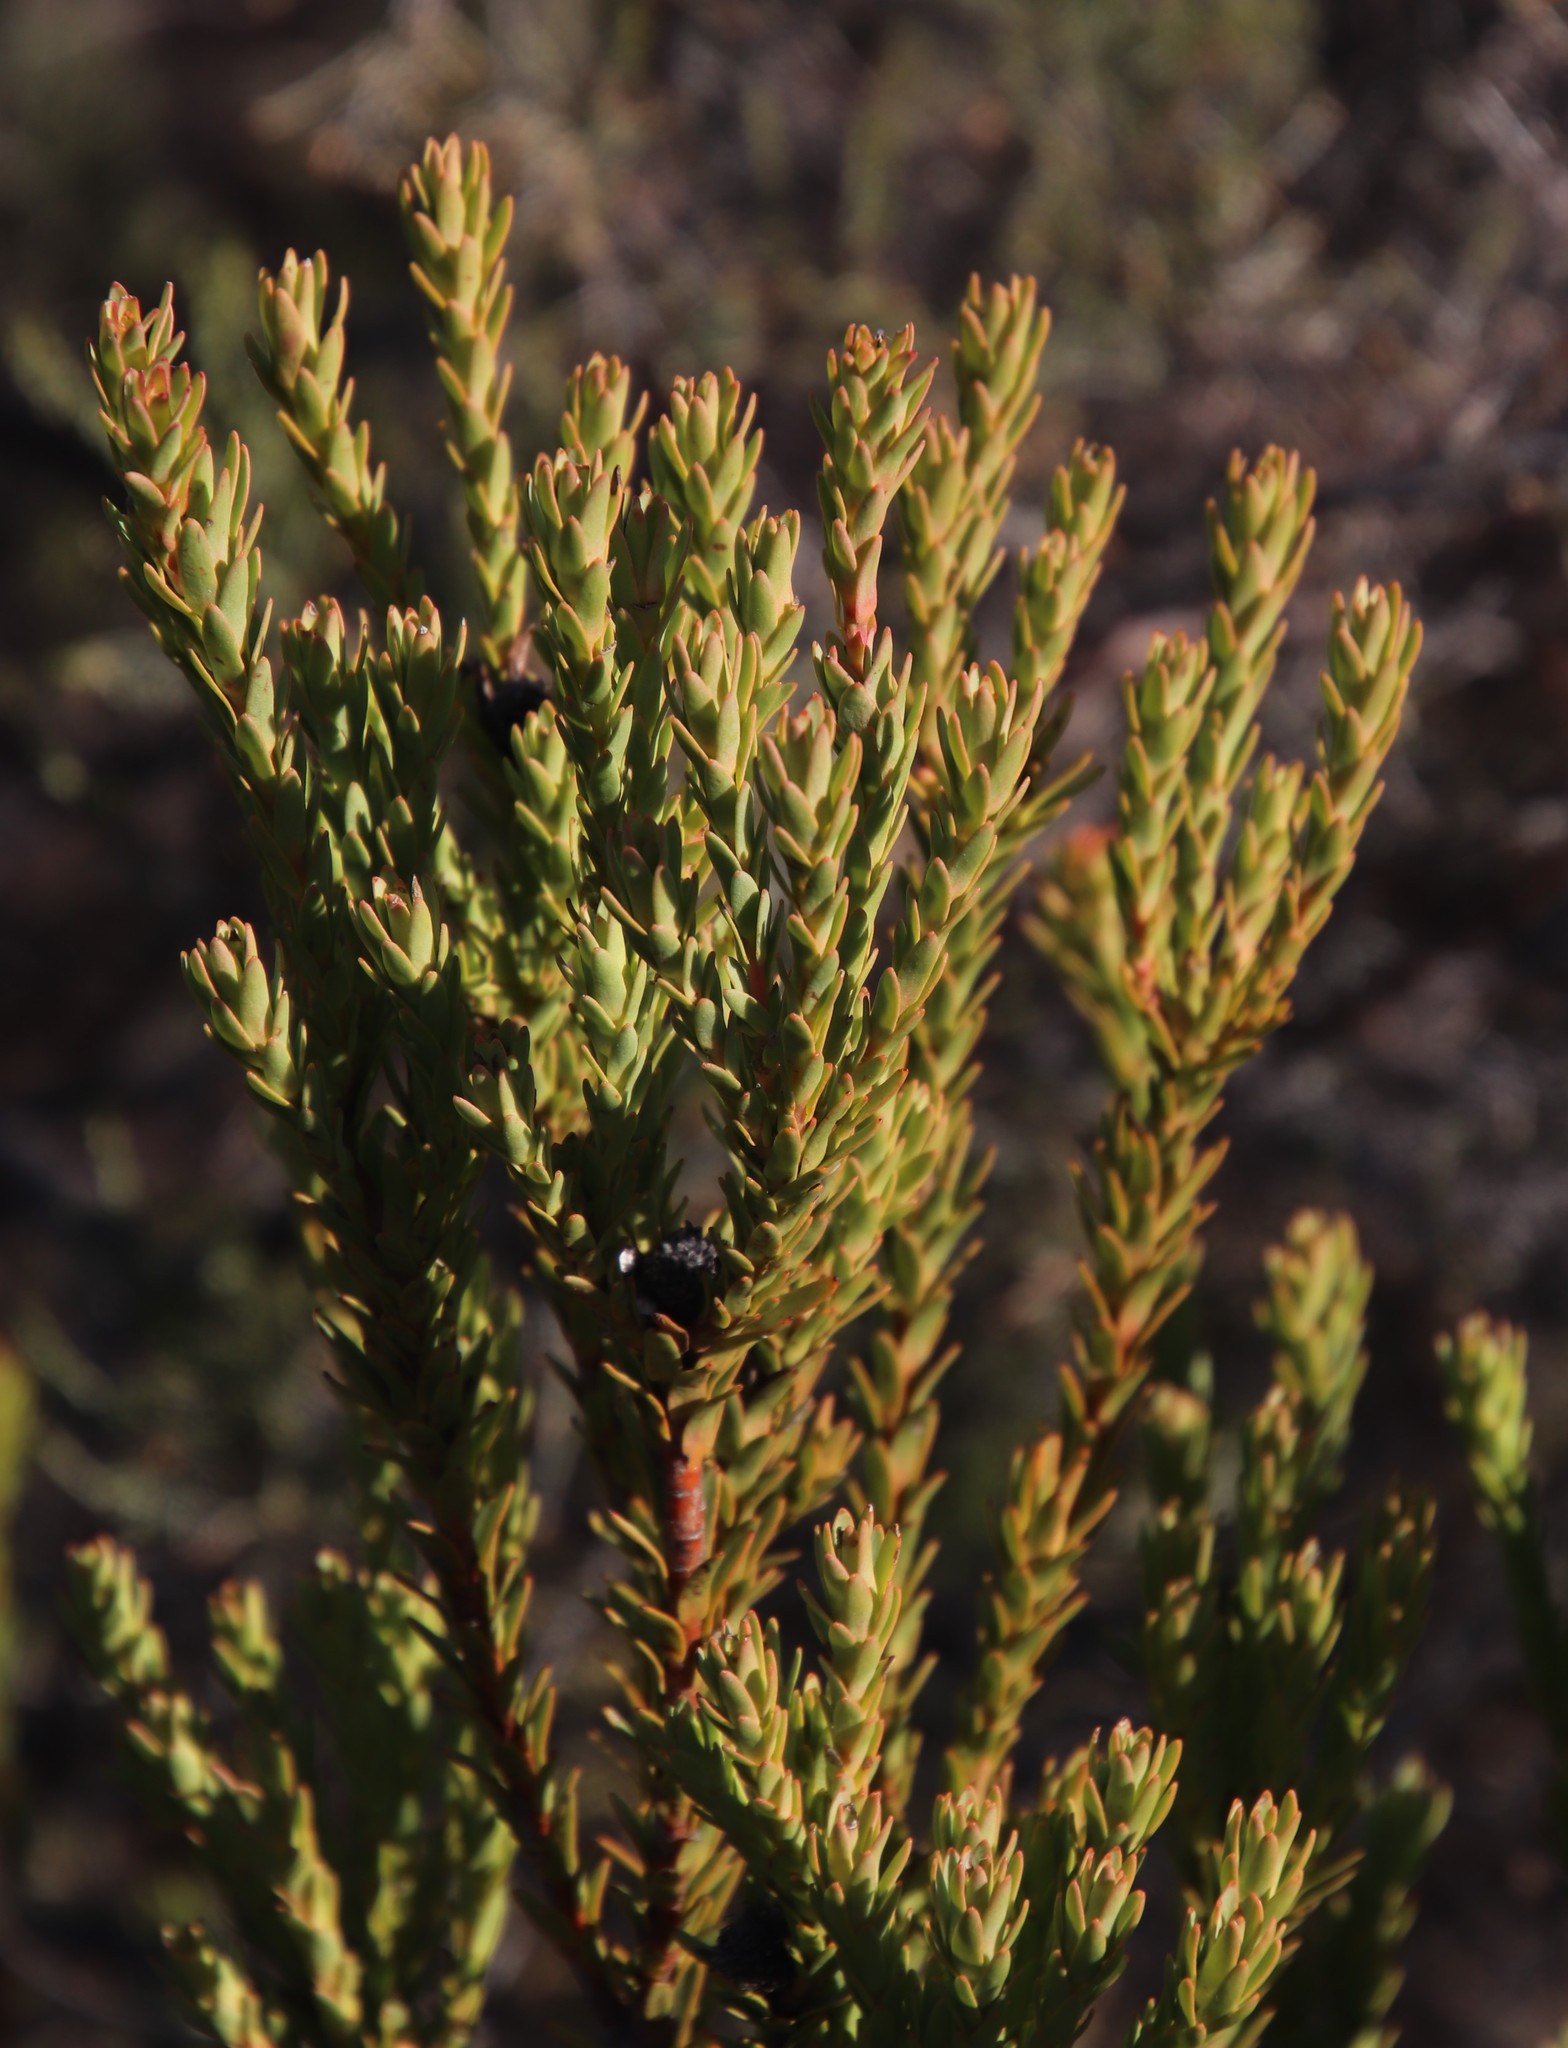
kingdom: Plantae
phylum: Tracheophyta
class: Magnoliopsida
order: Proteales
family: Proteaceae
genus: Leucadendron
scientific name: Leucadendron stellare
